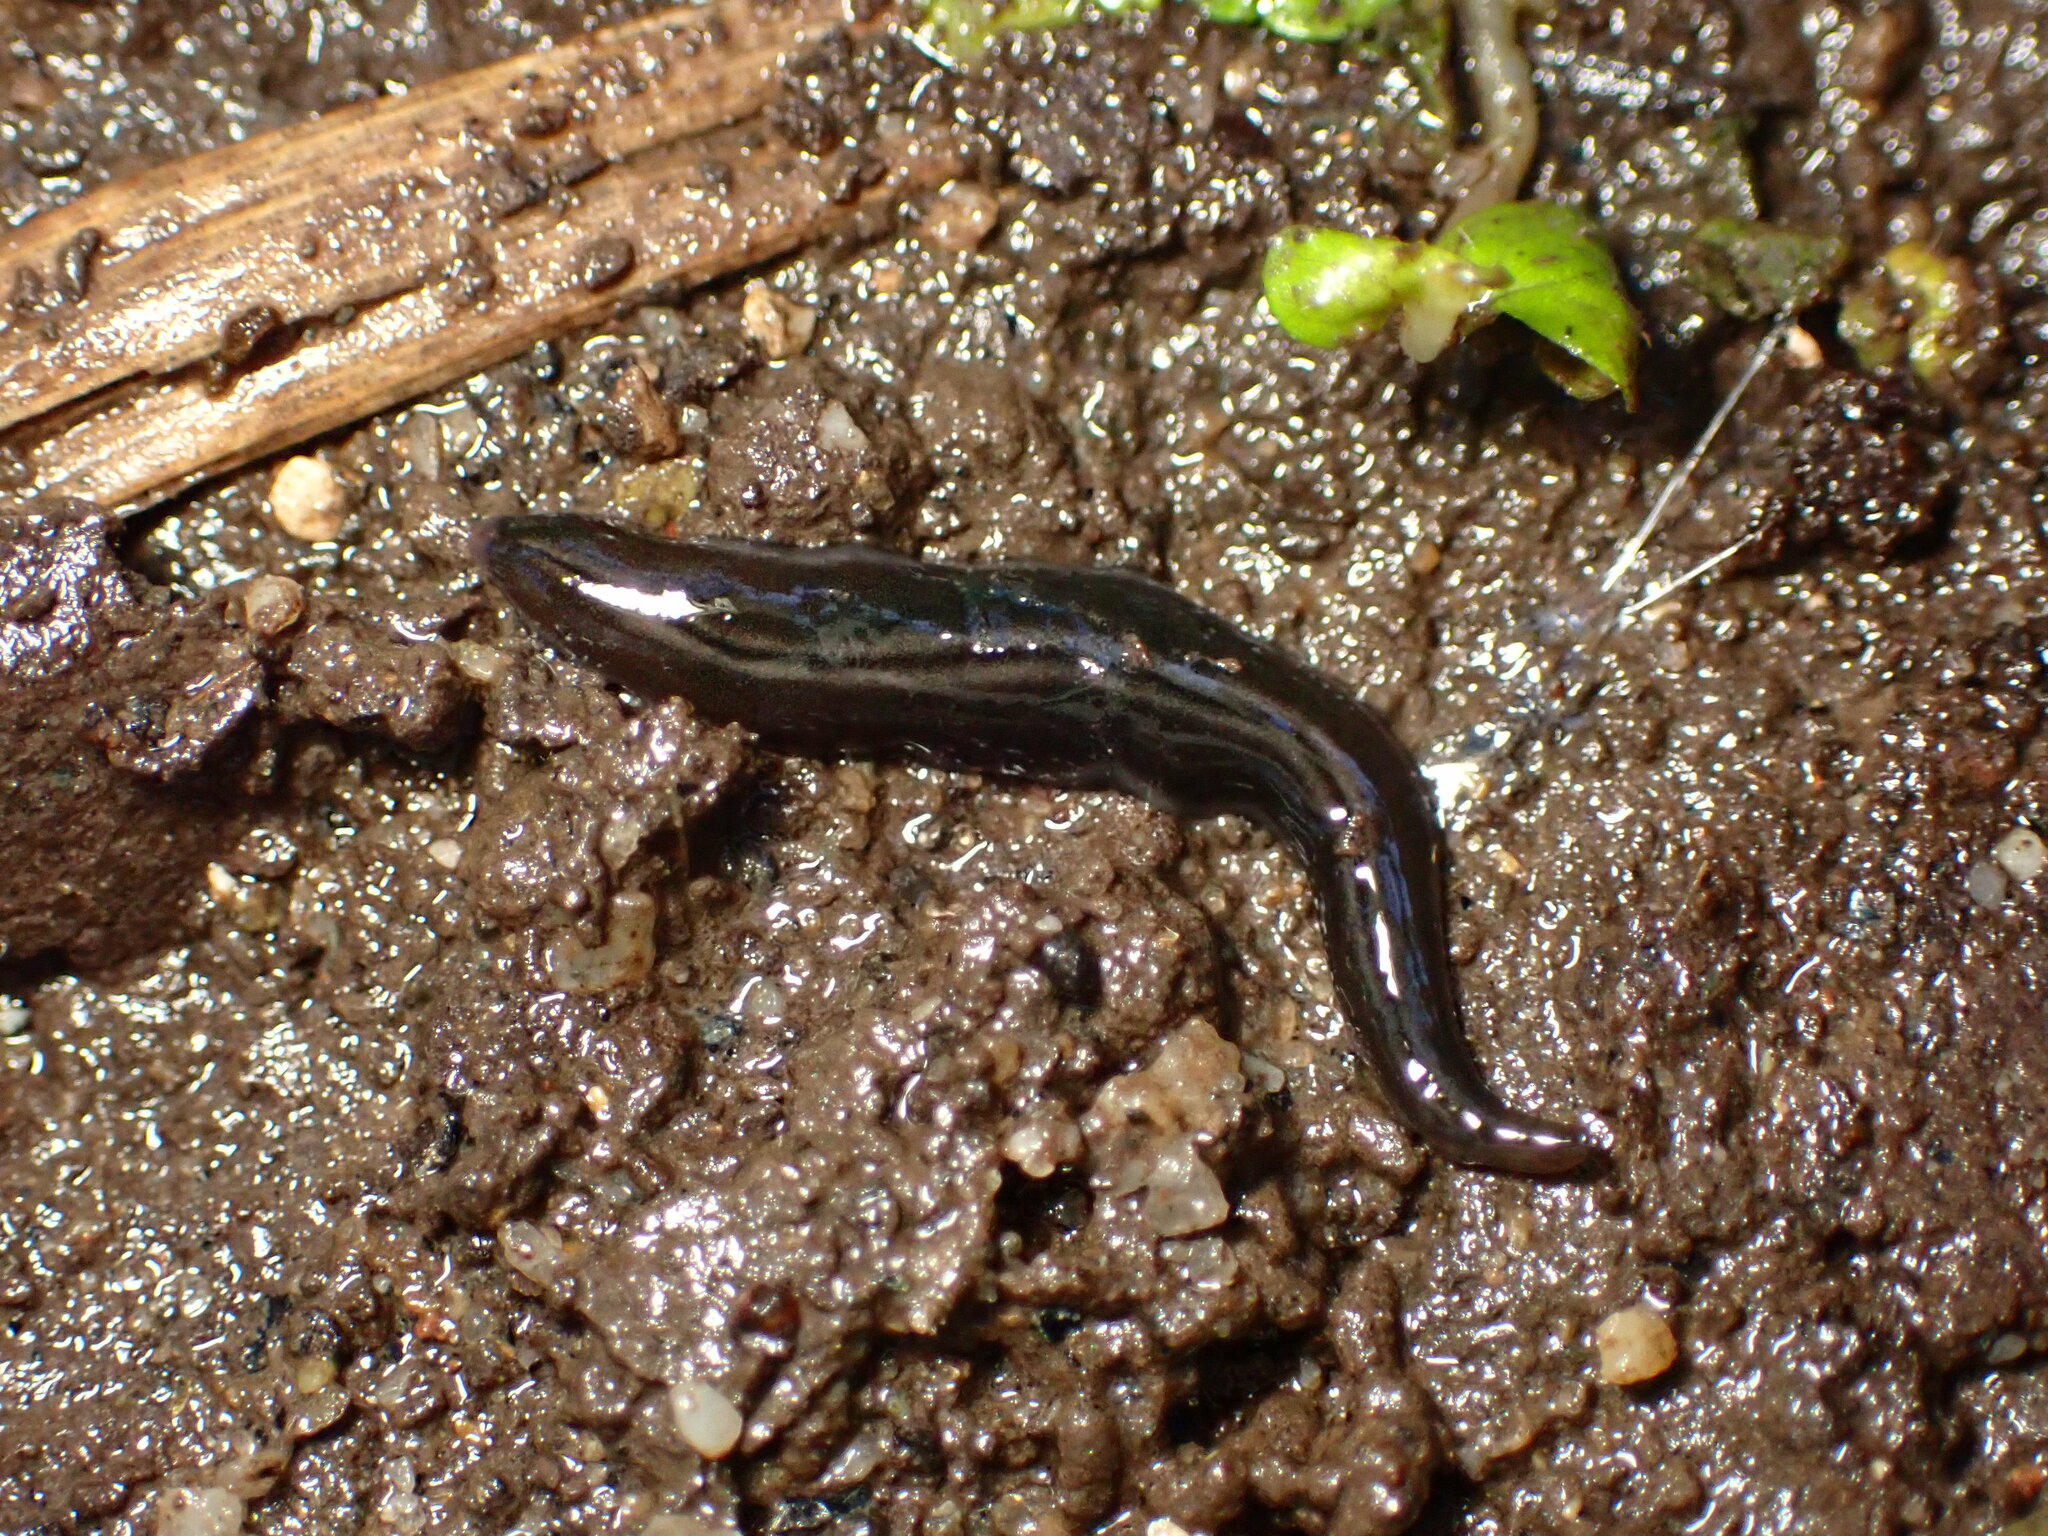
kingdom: Animalia
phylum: Platyhelminthes
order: Tricladida
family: Geoplanidae
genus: Parakontikia
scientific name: Parakontikia ventrolineata
